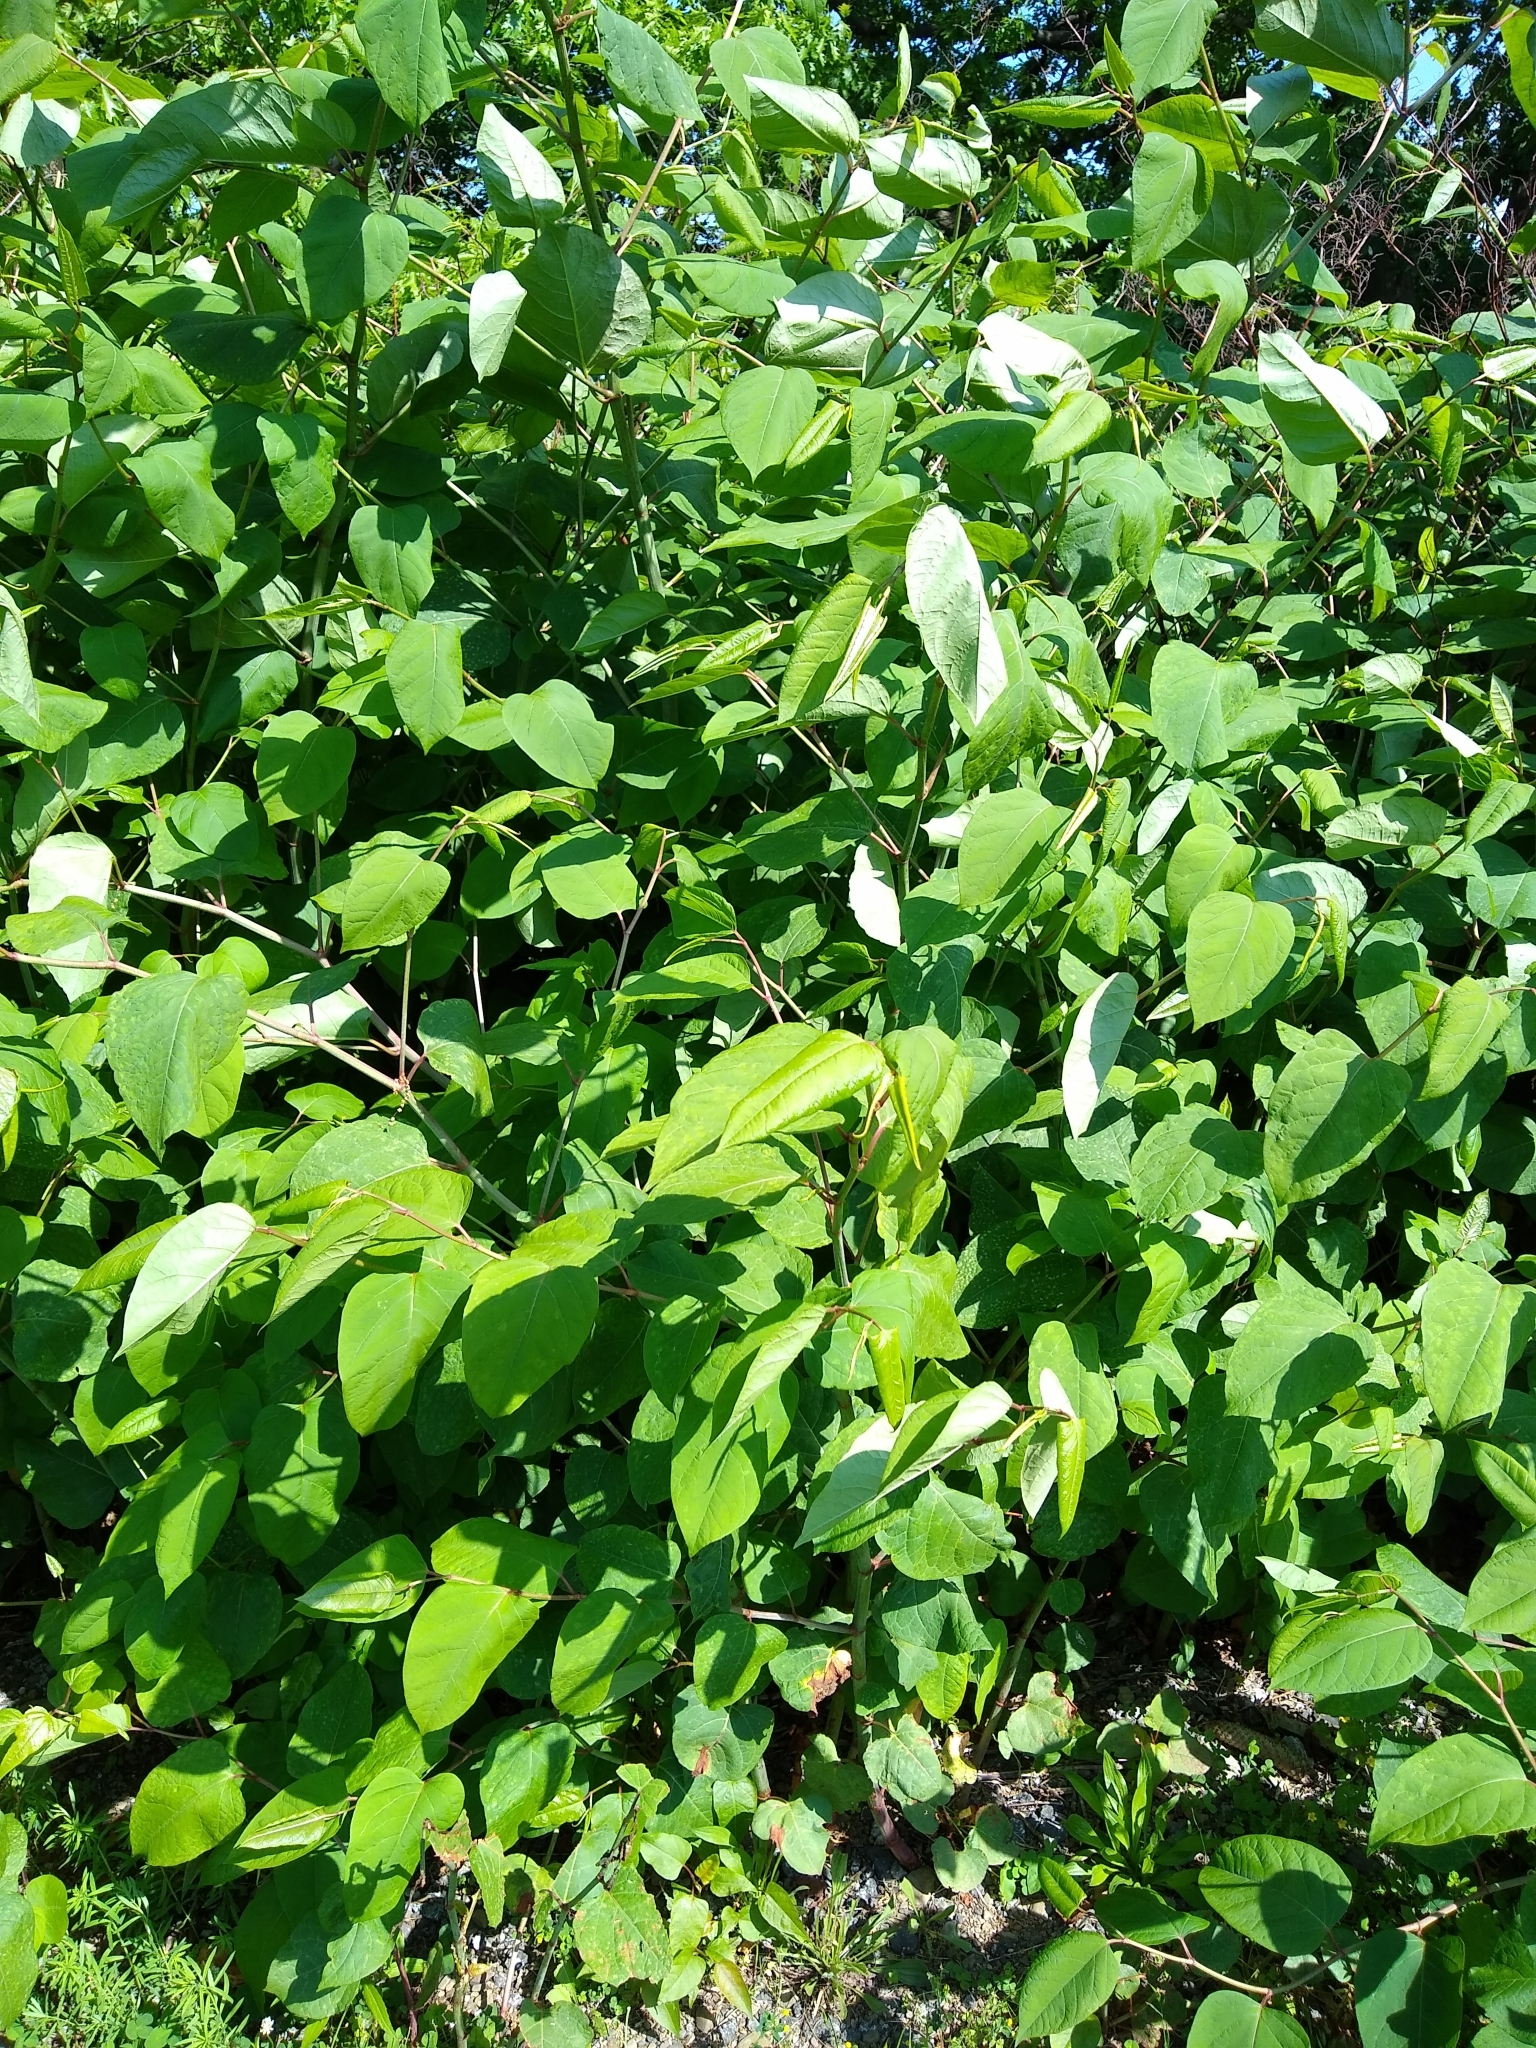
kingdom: Plantae
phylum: Tracheophyta
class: Magnoliopsida
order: Caryophyllales
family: Polygonaceae
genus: Reynoutria
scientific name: Reynoutria japonica
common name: Japanese knotweed
